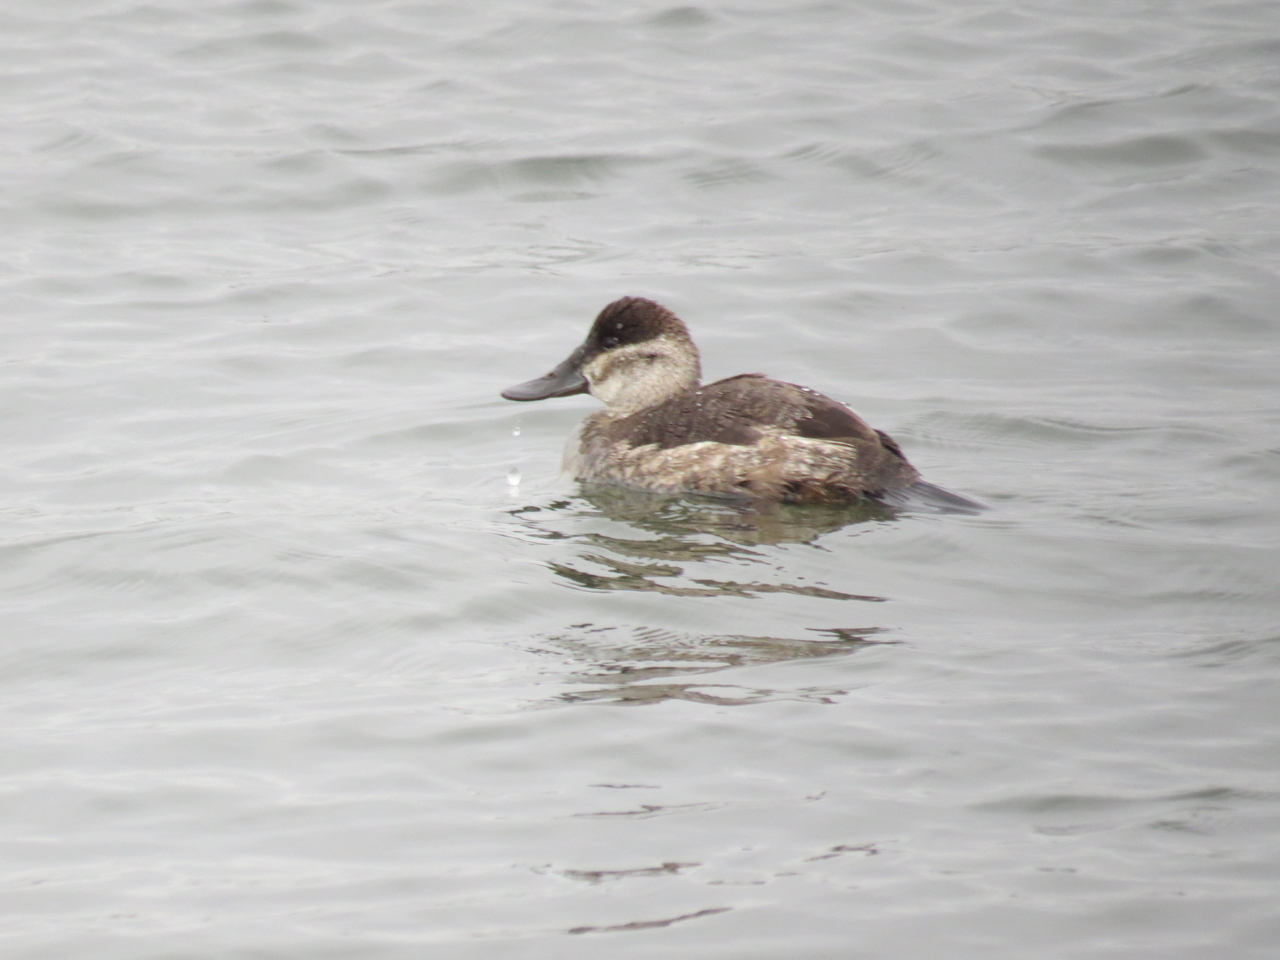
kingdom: Animalia
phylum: Chordata
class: Aves
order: Anseriformes
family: Anatidae
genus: Oxyura
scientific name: Oxyura jamaicensis
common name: Ruddy duck
